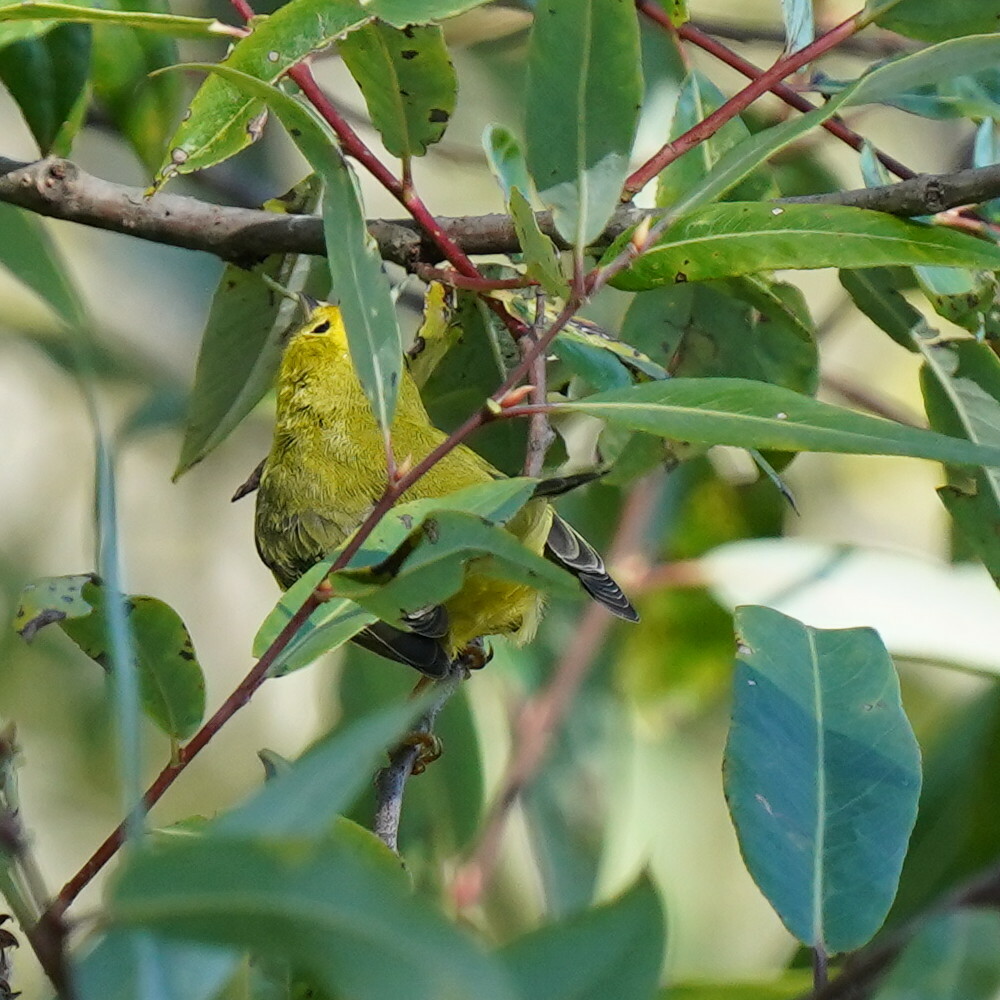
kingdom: Animalia
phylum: Chordata
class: Aves
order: Passeriformes
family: Parulidae
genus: Cardellina
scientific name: Cardellina pusilla
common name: Wilson's warbler
